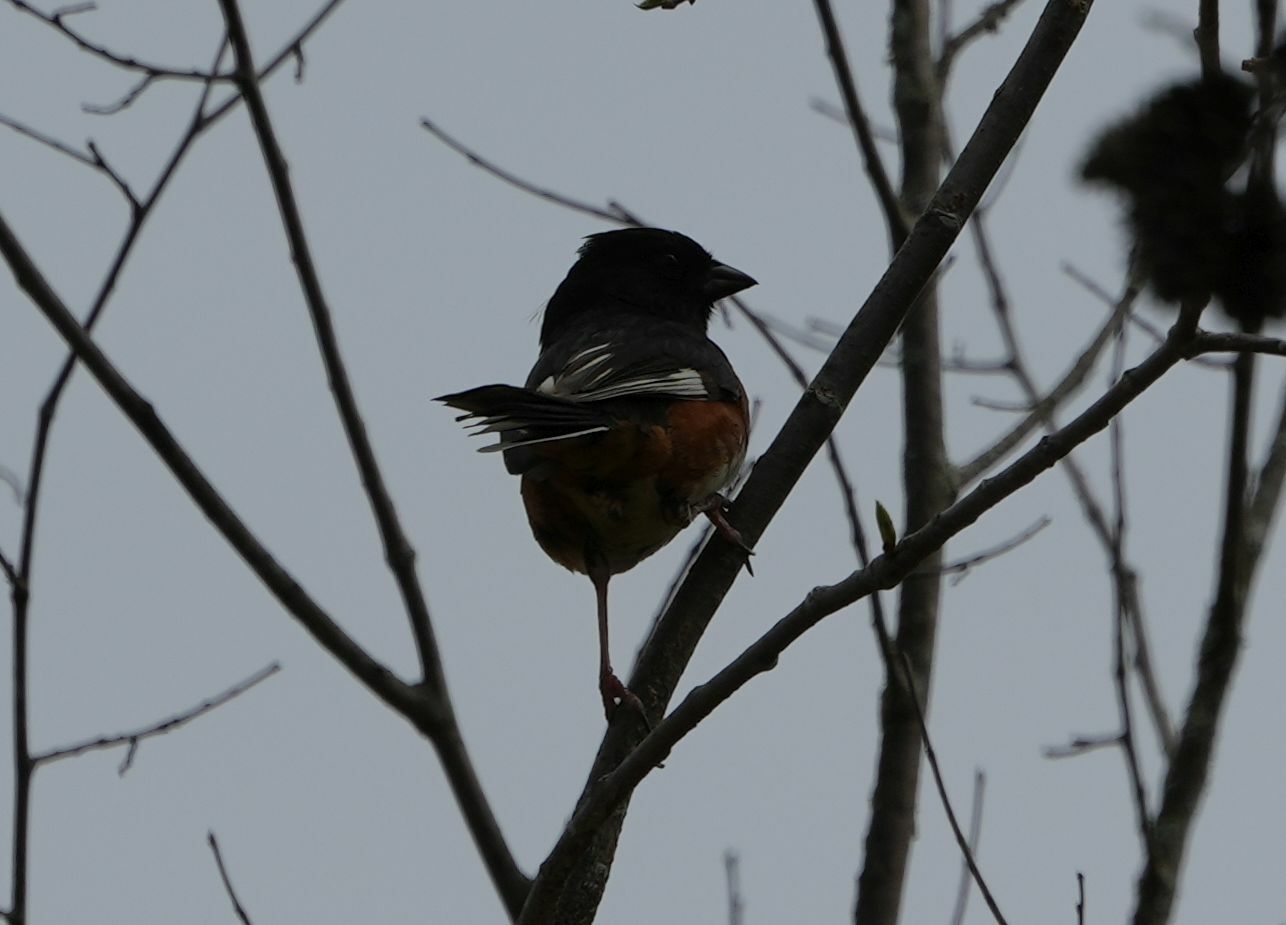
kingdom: Animalia
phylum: Chordata
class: Aves
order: Passeriformes
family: Passerellidae
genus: Pipilo
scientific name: Pipilo erythrophthalmus
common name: Eastern towhee
